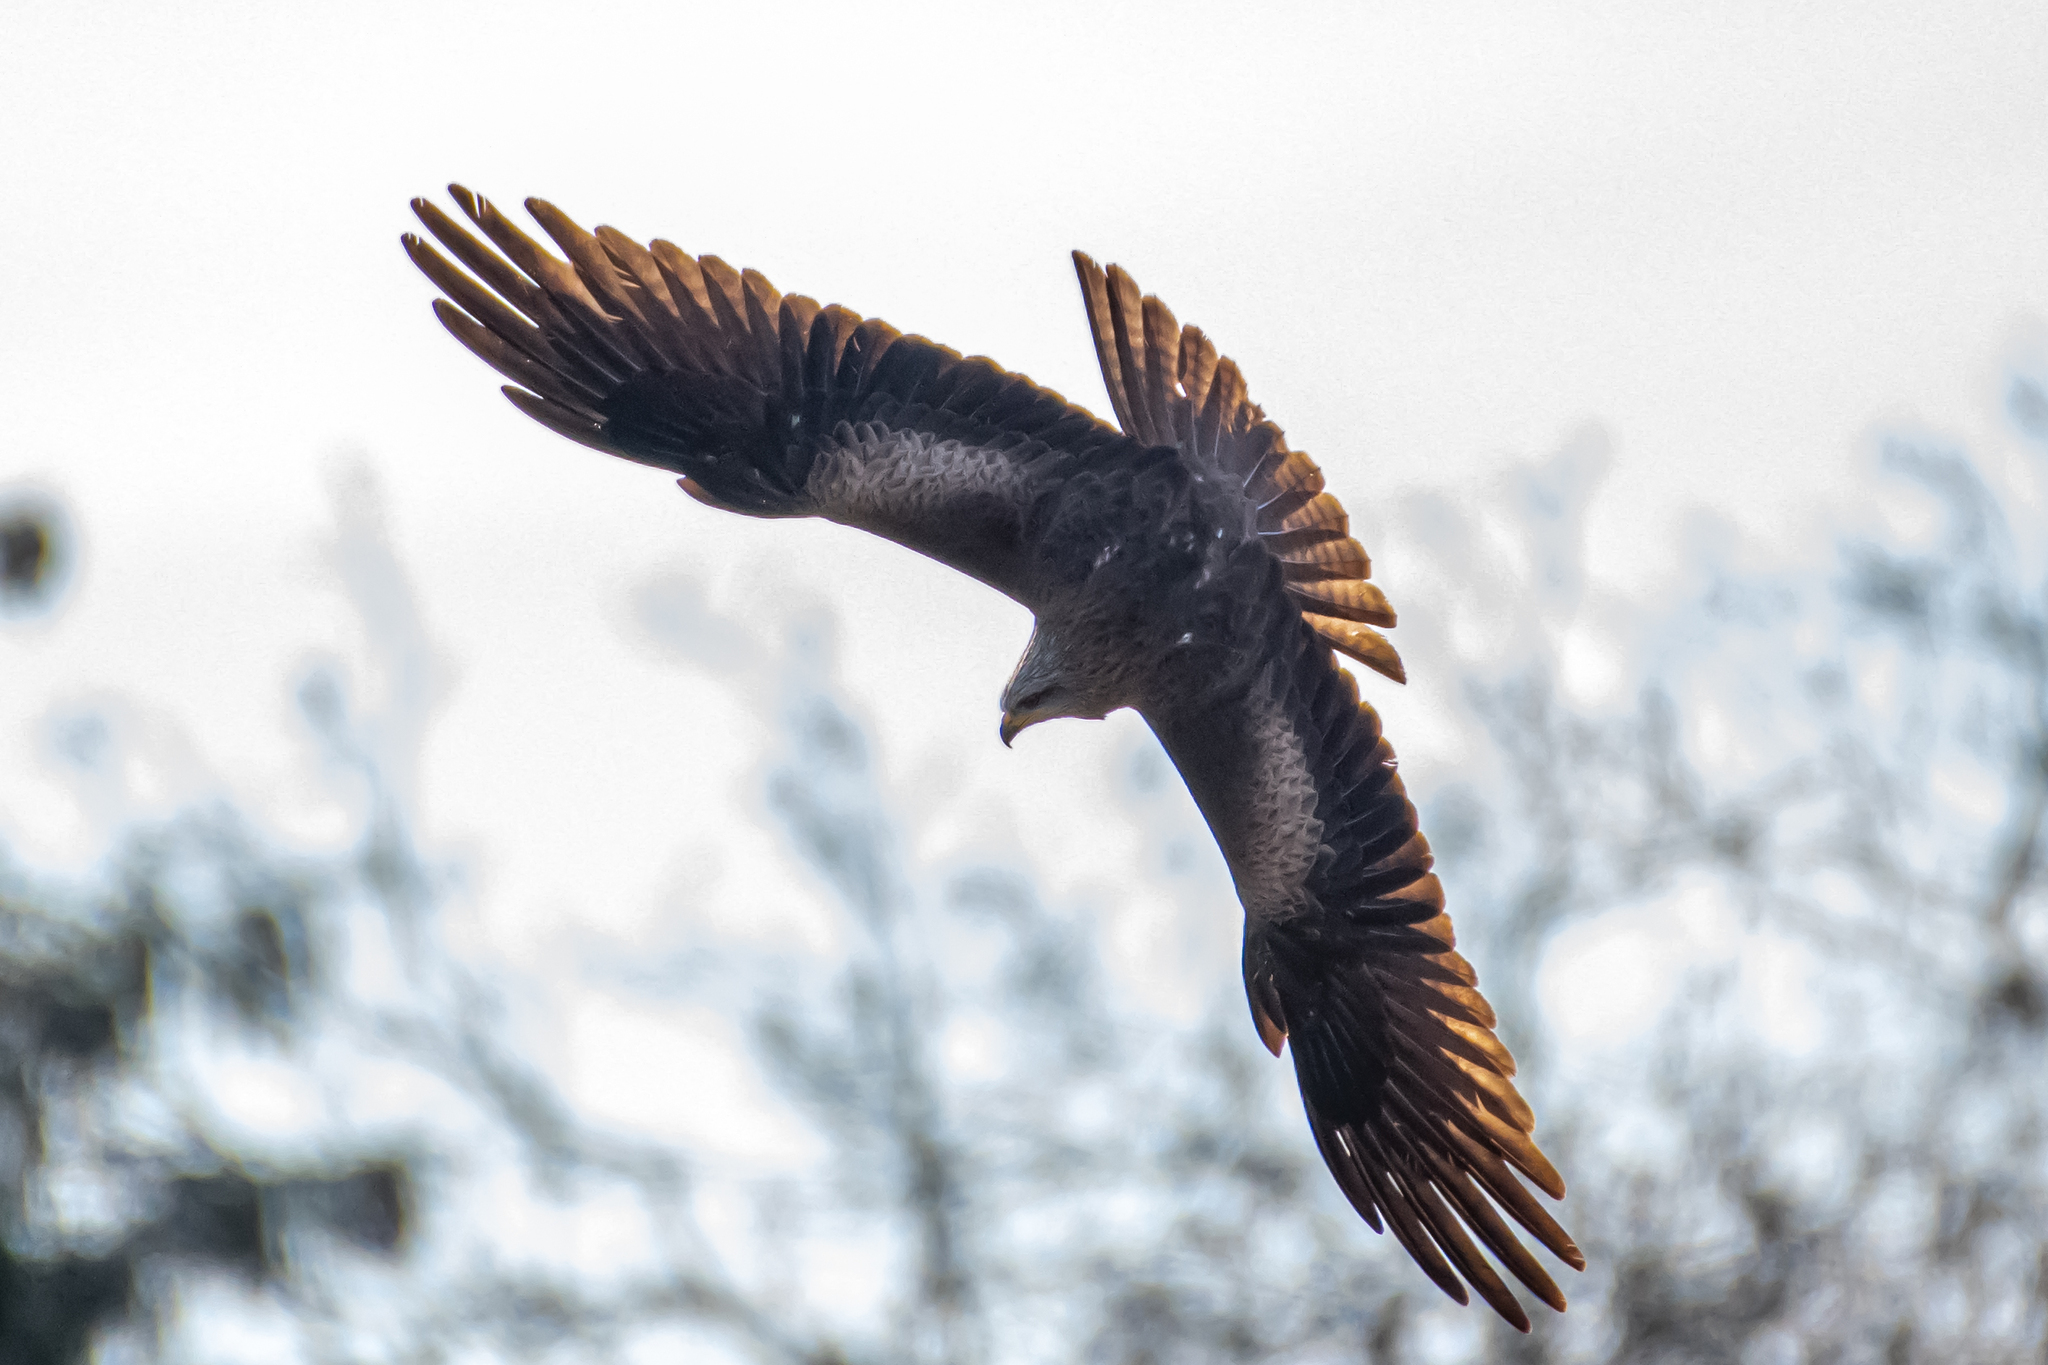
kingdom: Animalia
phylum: Chordata
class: Aves
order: Accipitriformes
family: Accipitridae
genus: Milvus
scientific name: Milvus migrans
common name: Black kite
